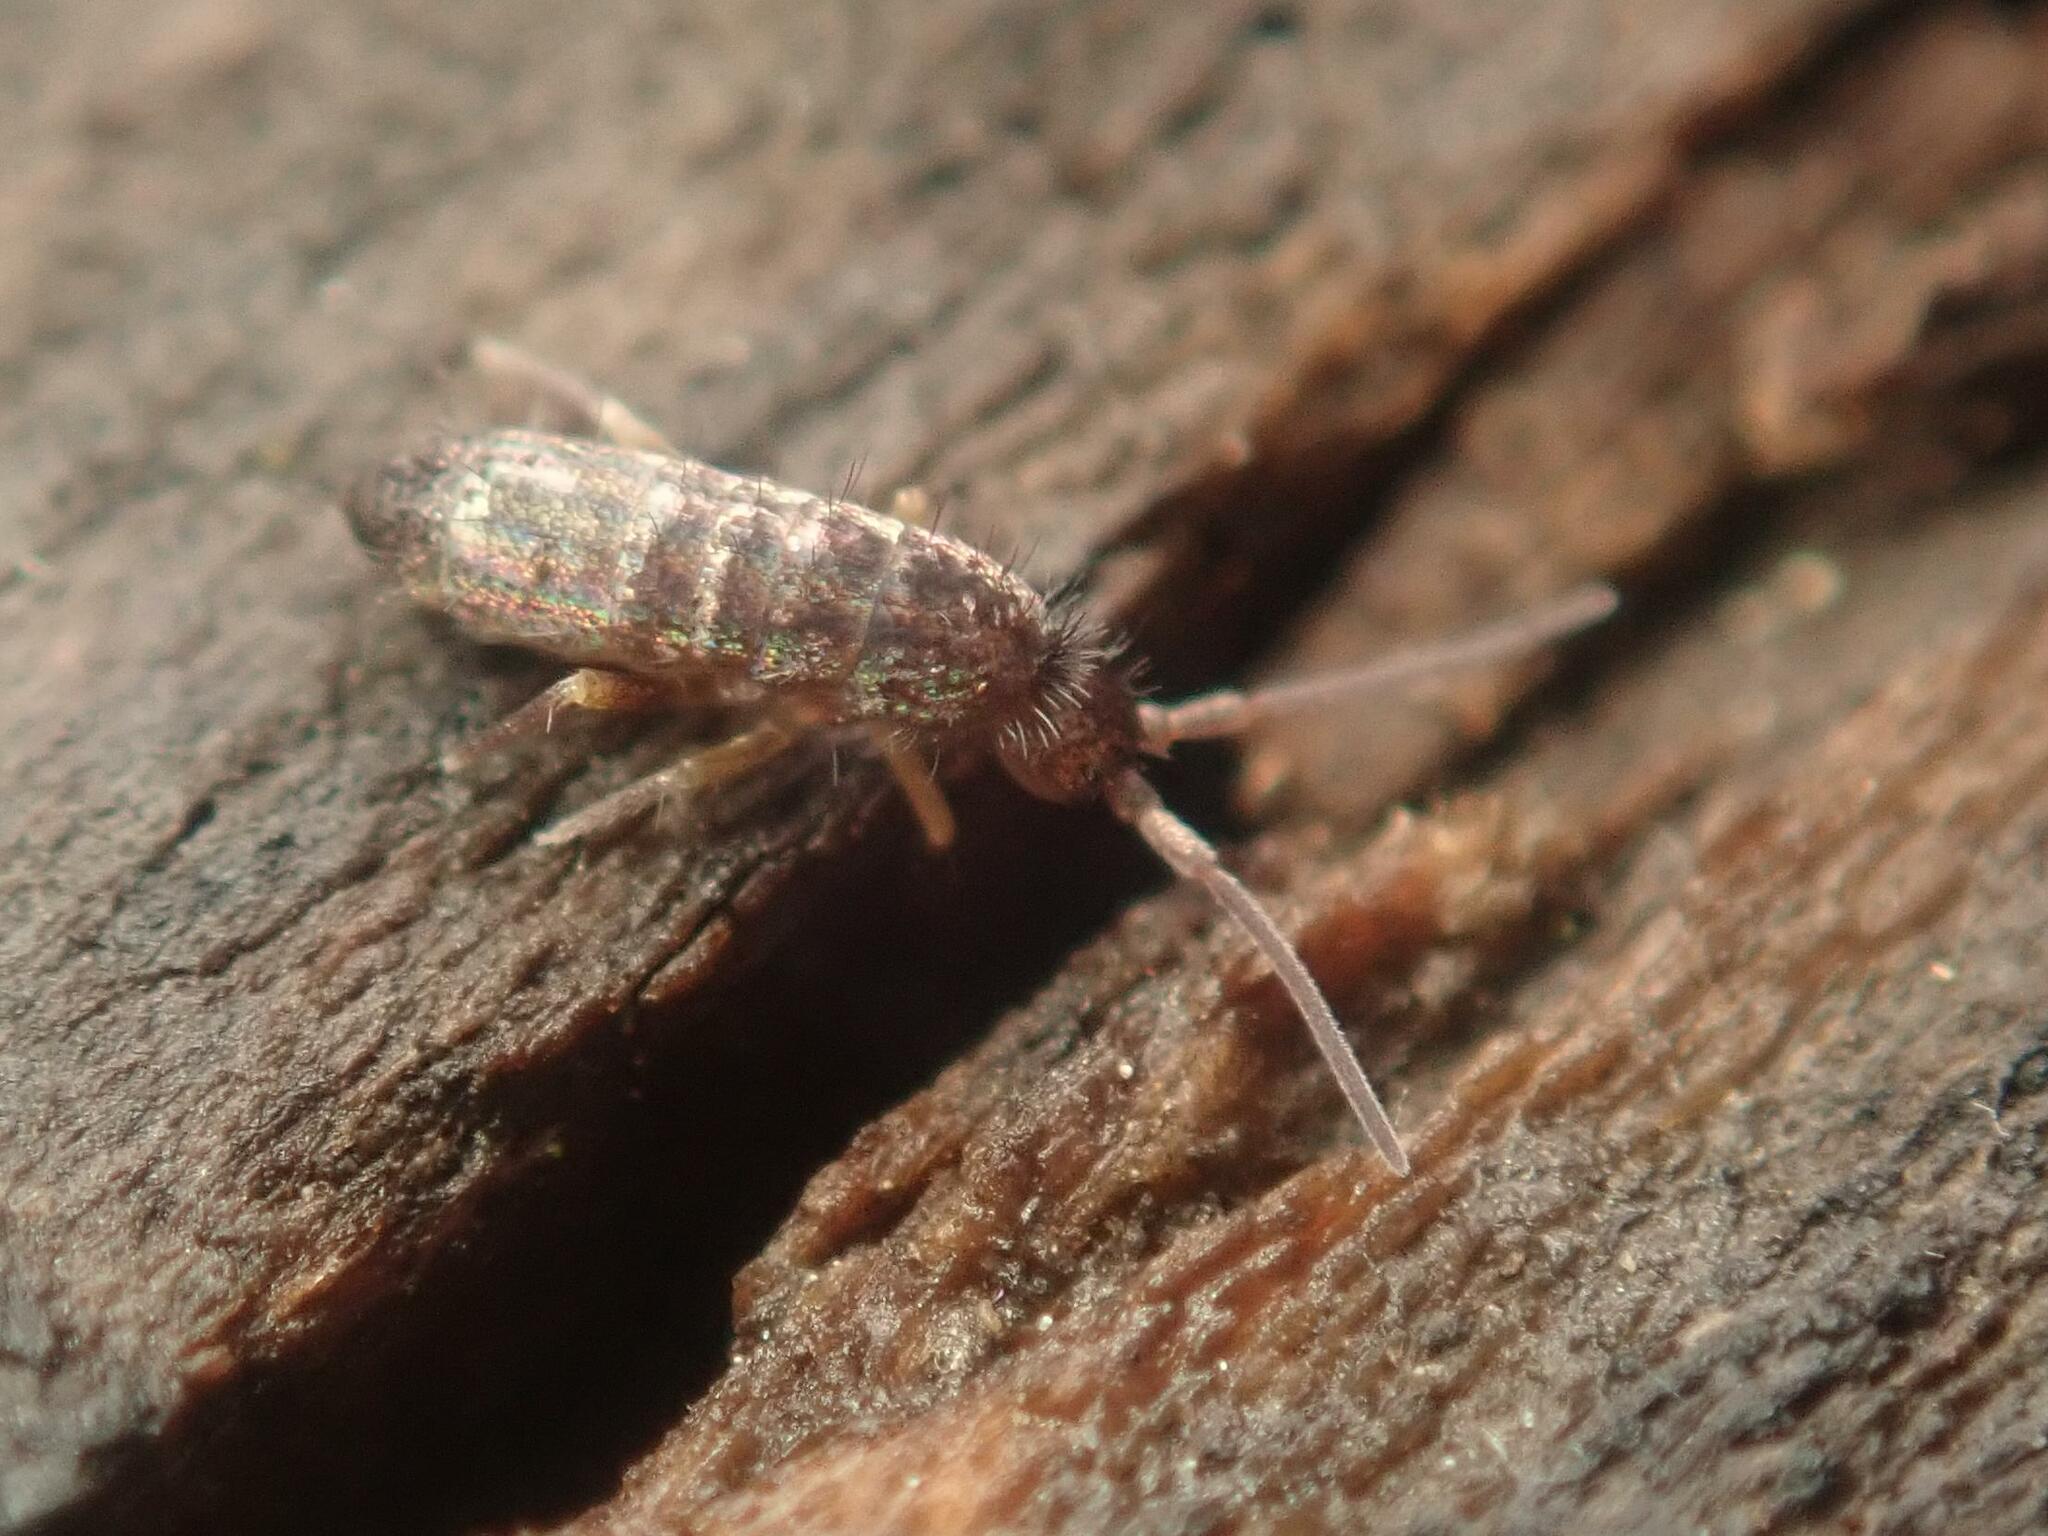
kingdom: Animalia
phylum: Arthropoda
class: Collembola
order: Entomobryomorpha
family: Tomoceridae
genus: Tomocerus
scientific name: Tomocerus vulgaris
